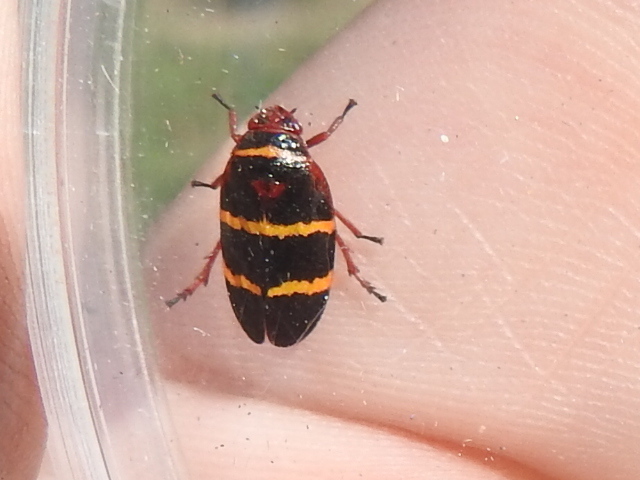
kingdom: Animalia
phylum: Arthropoda
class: Insecta
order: Hemiptera
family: Cercopidae
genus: Prosapia
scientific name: Prosapia bicincta
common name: Twolined spittlebug
